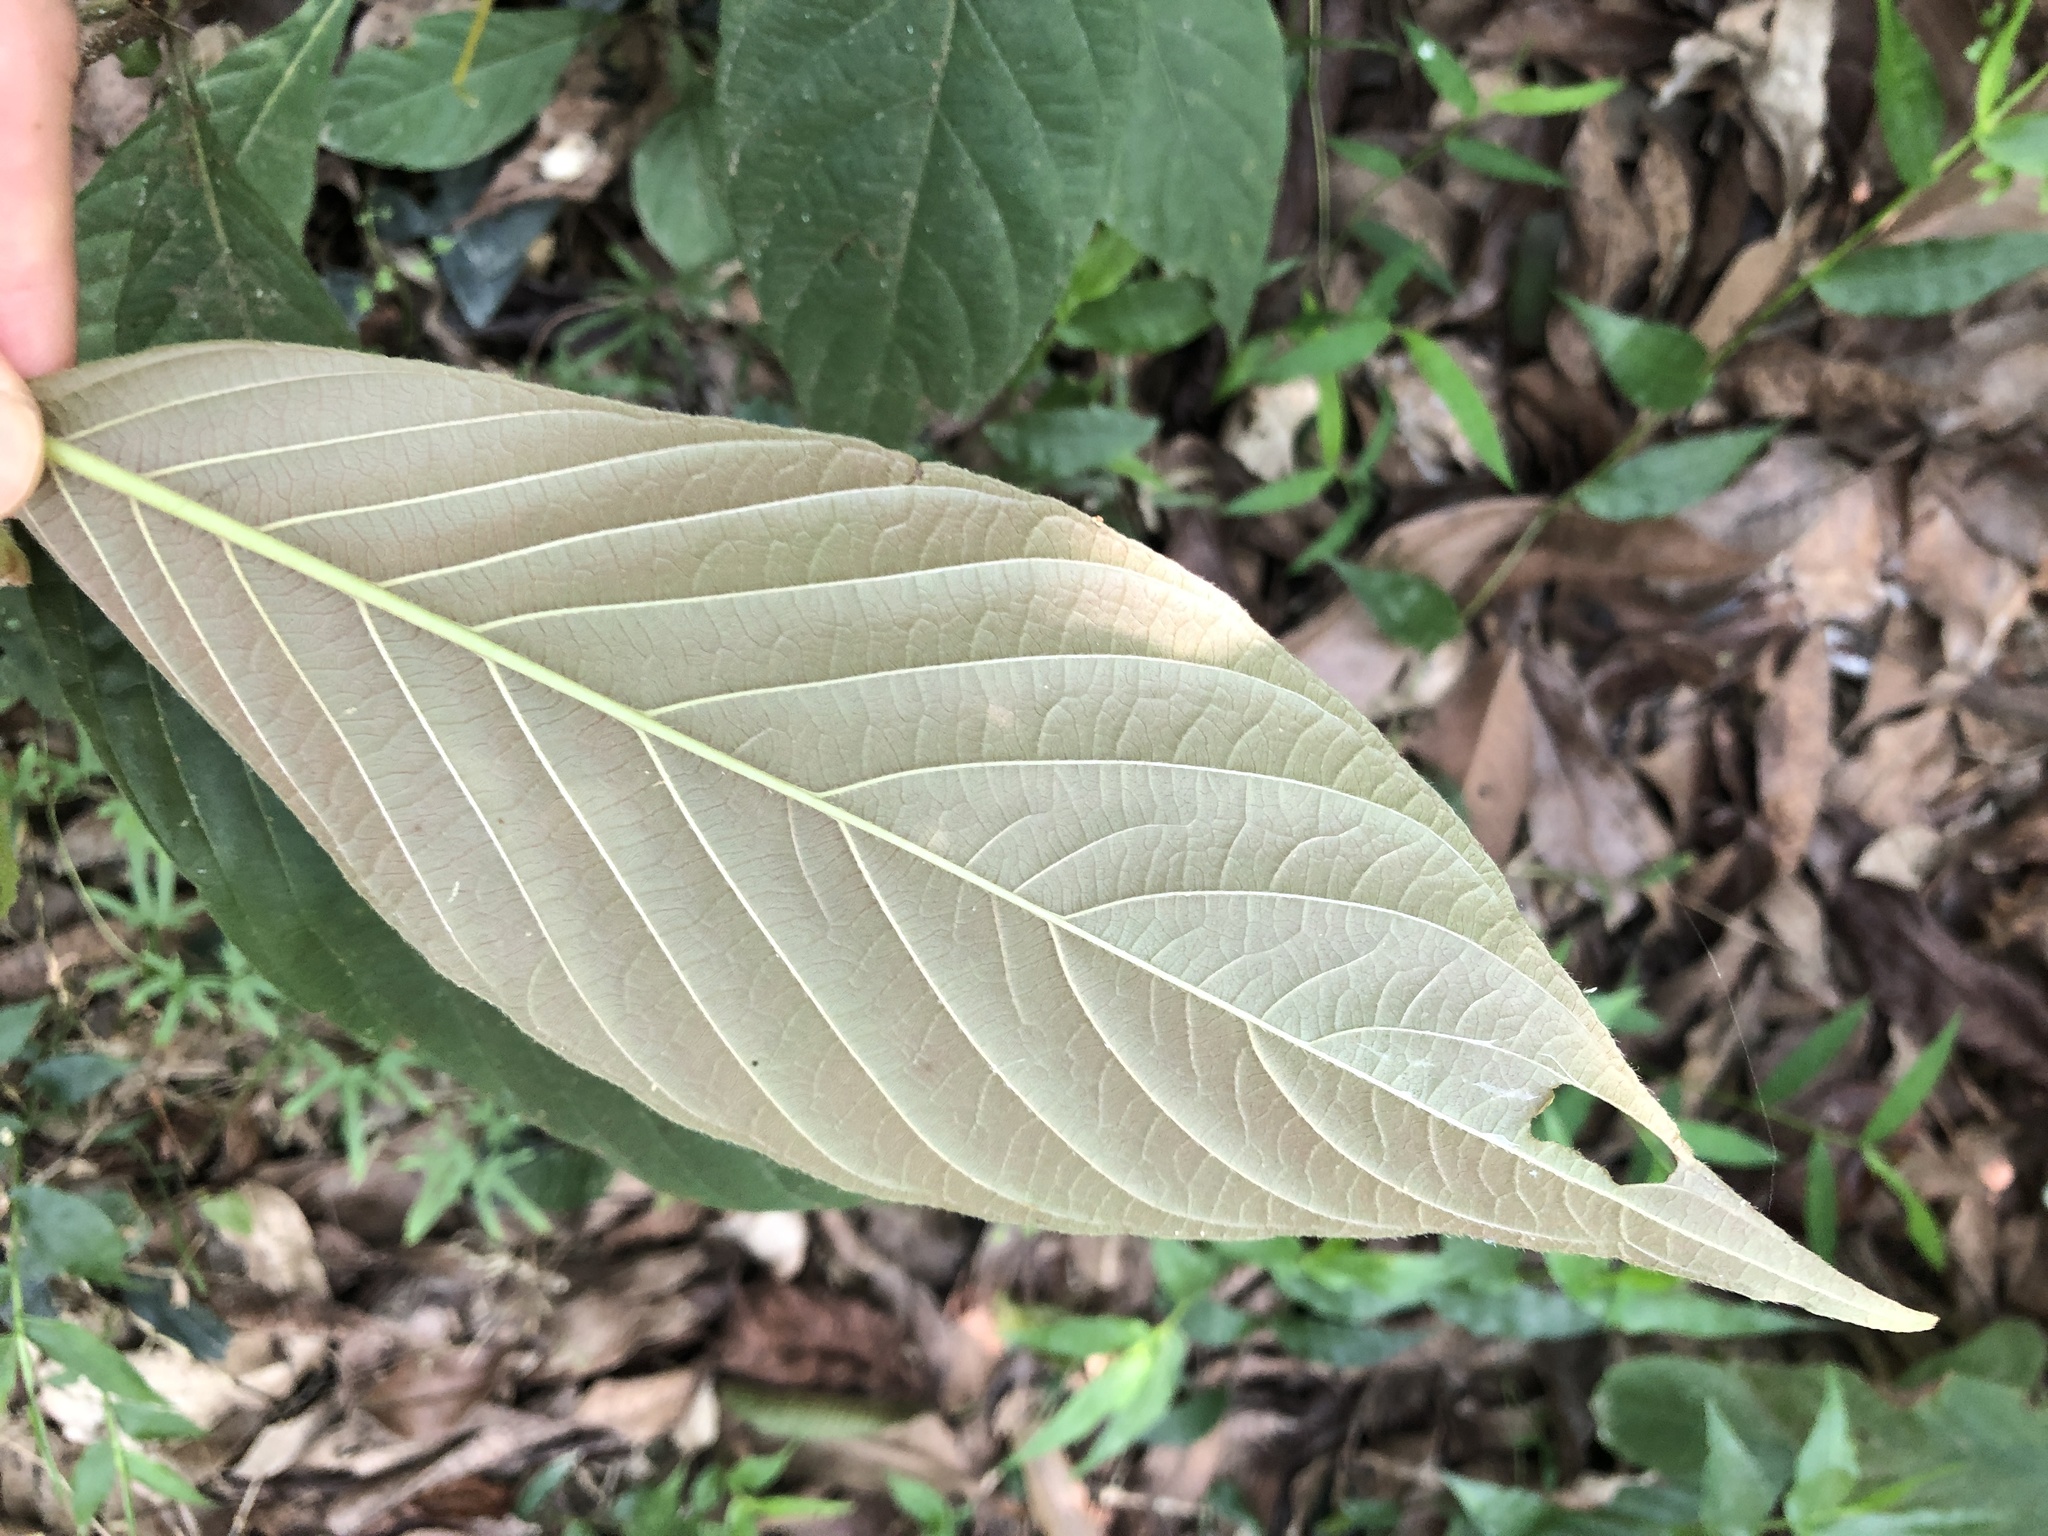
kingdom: Plantae
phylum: Tracheophyta
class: Magnoliopsida
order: Gentianales
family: Rubiaceae
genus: Wendlandia
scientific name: Wendlandia uvariifolia
